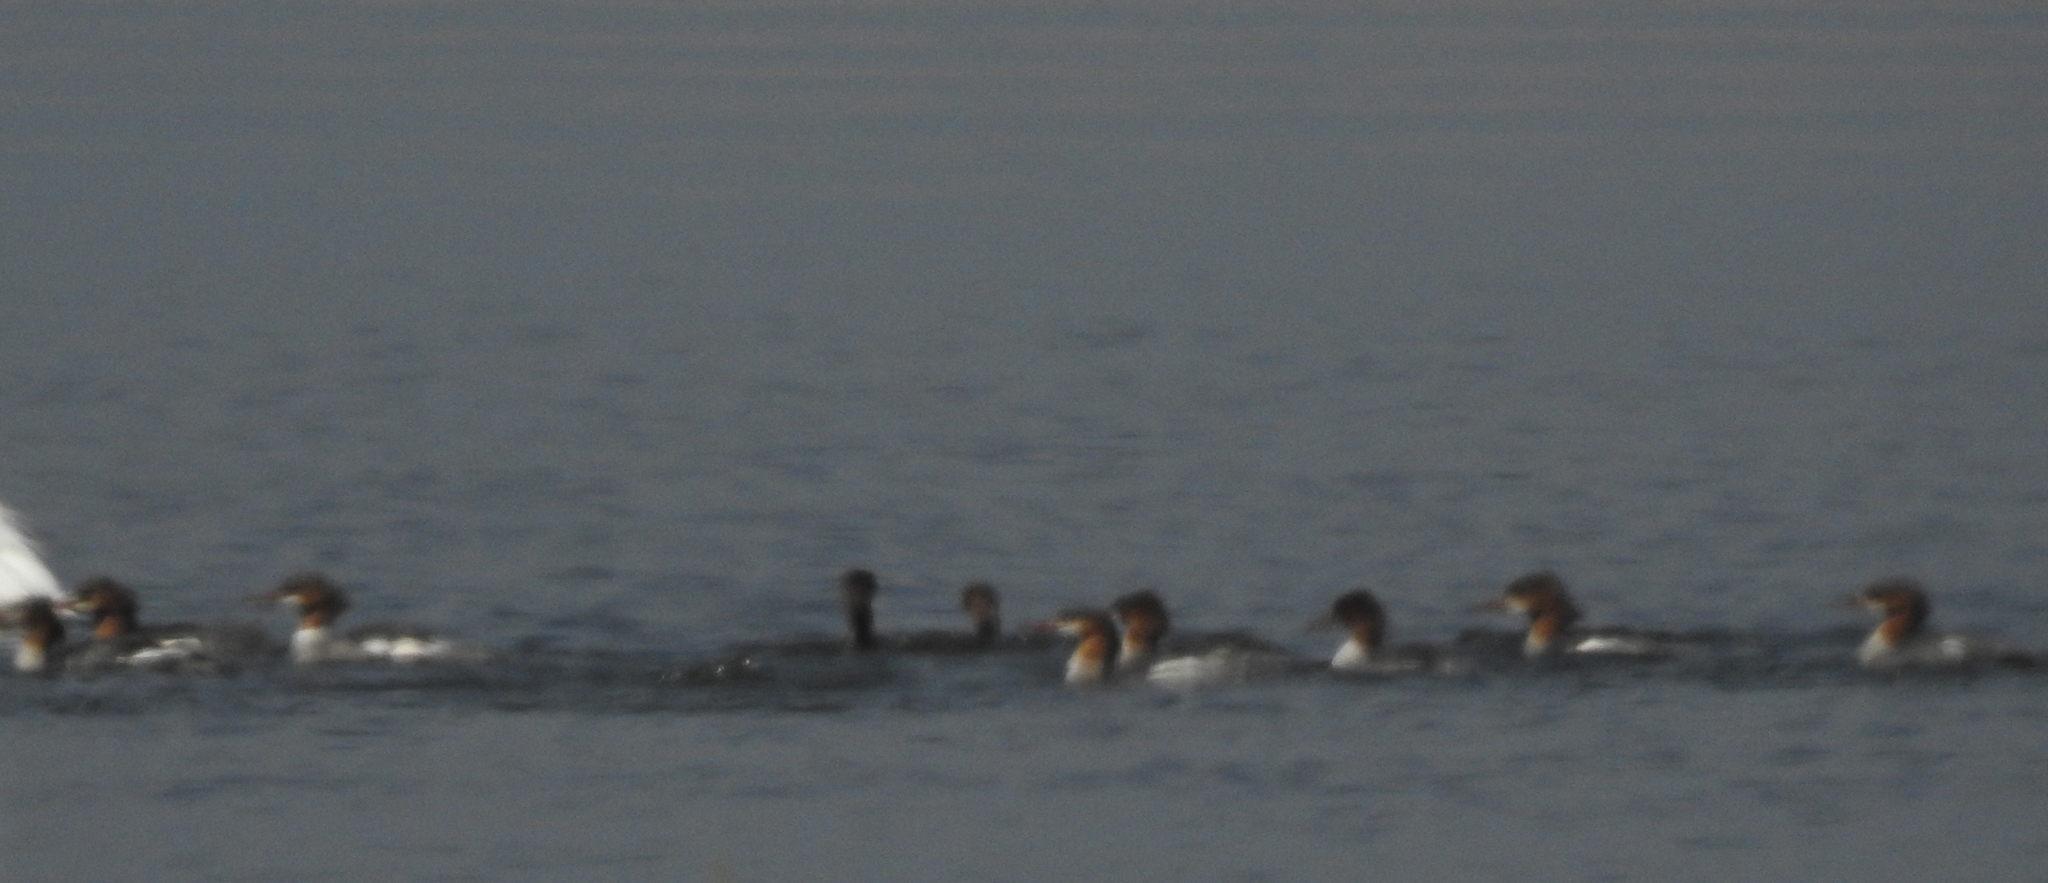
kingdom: Animalia
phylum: Chordata
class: Aves
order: Anseriformes
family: Anatidae
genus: Mergus
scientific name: Mergus merganser
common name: Common merganser
